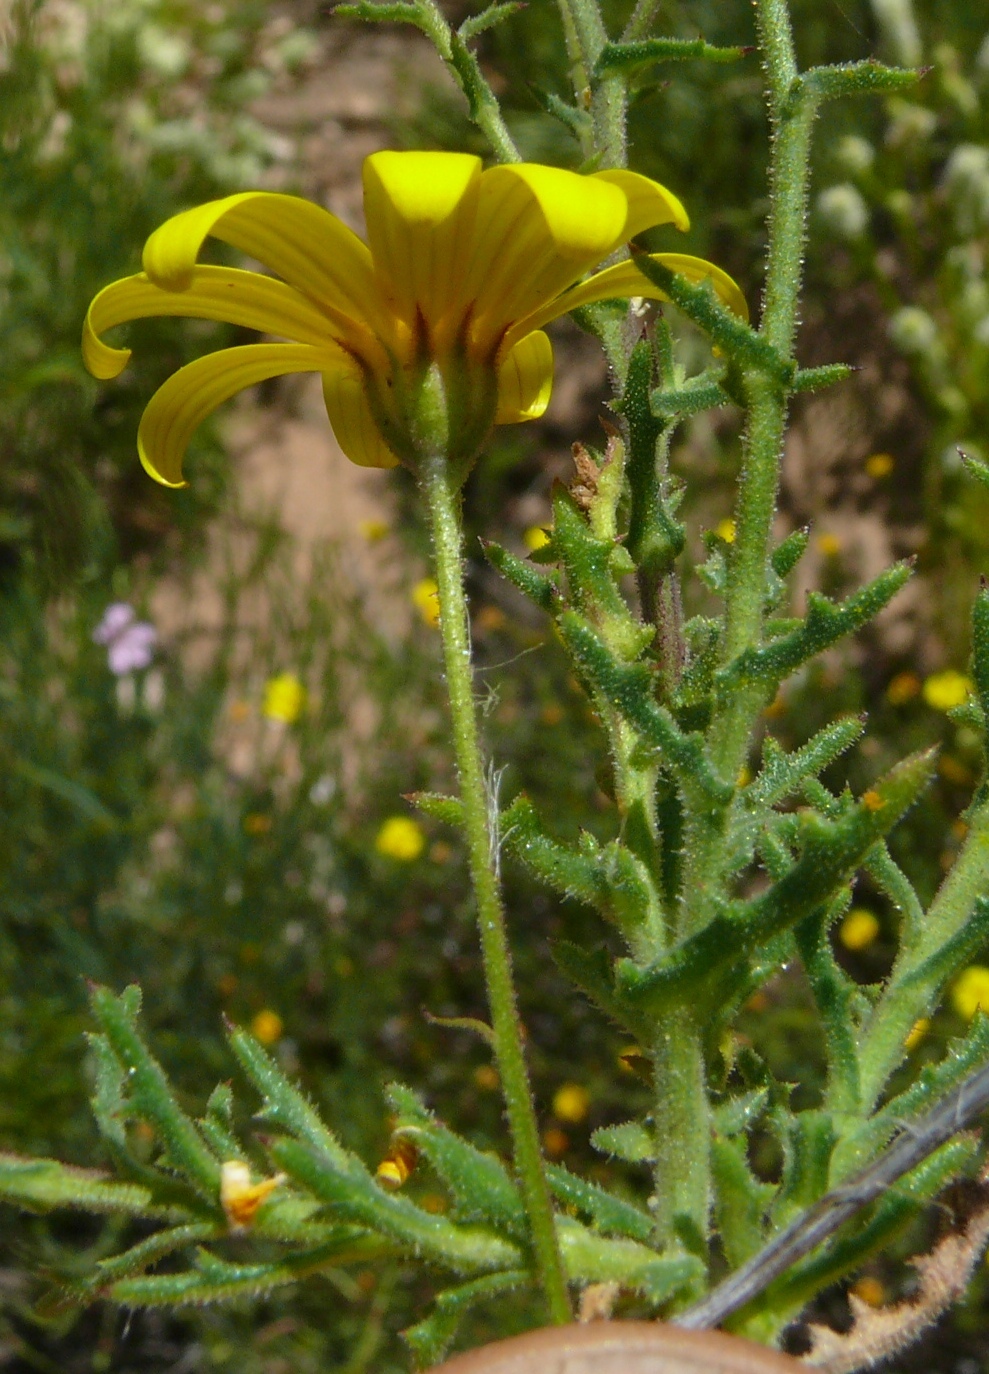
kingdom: Plantae
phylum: Tracheophyta
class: Magnoliopsida
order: Asterales
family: Asteraceae
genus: Osteospermum
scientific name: Osteospermum rigidum
